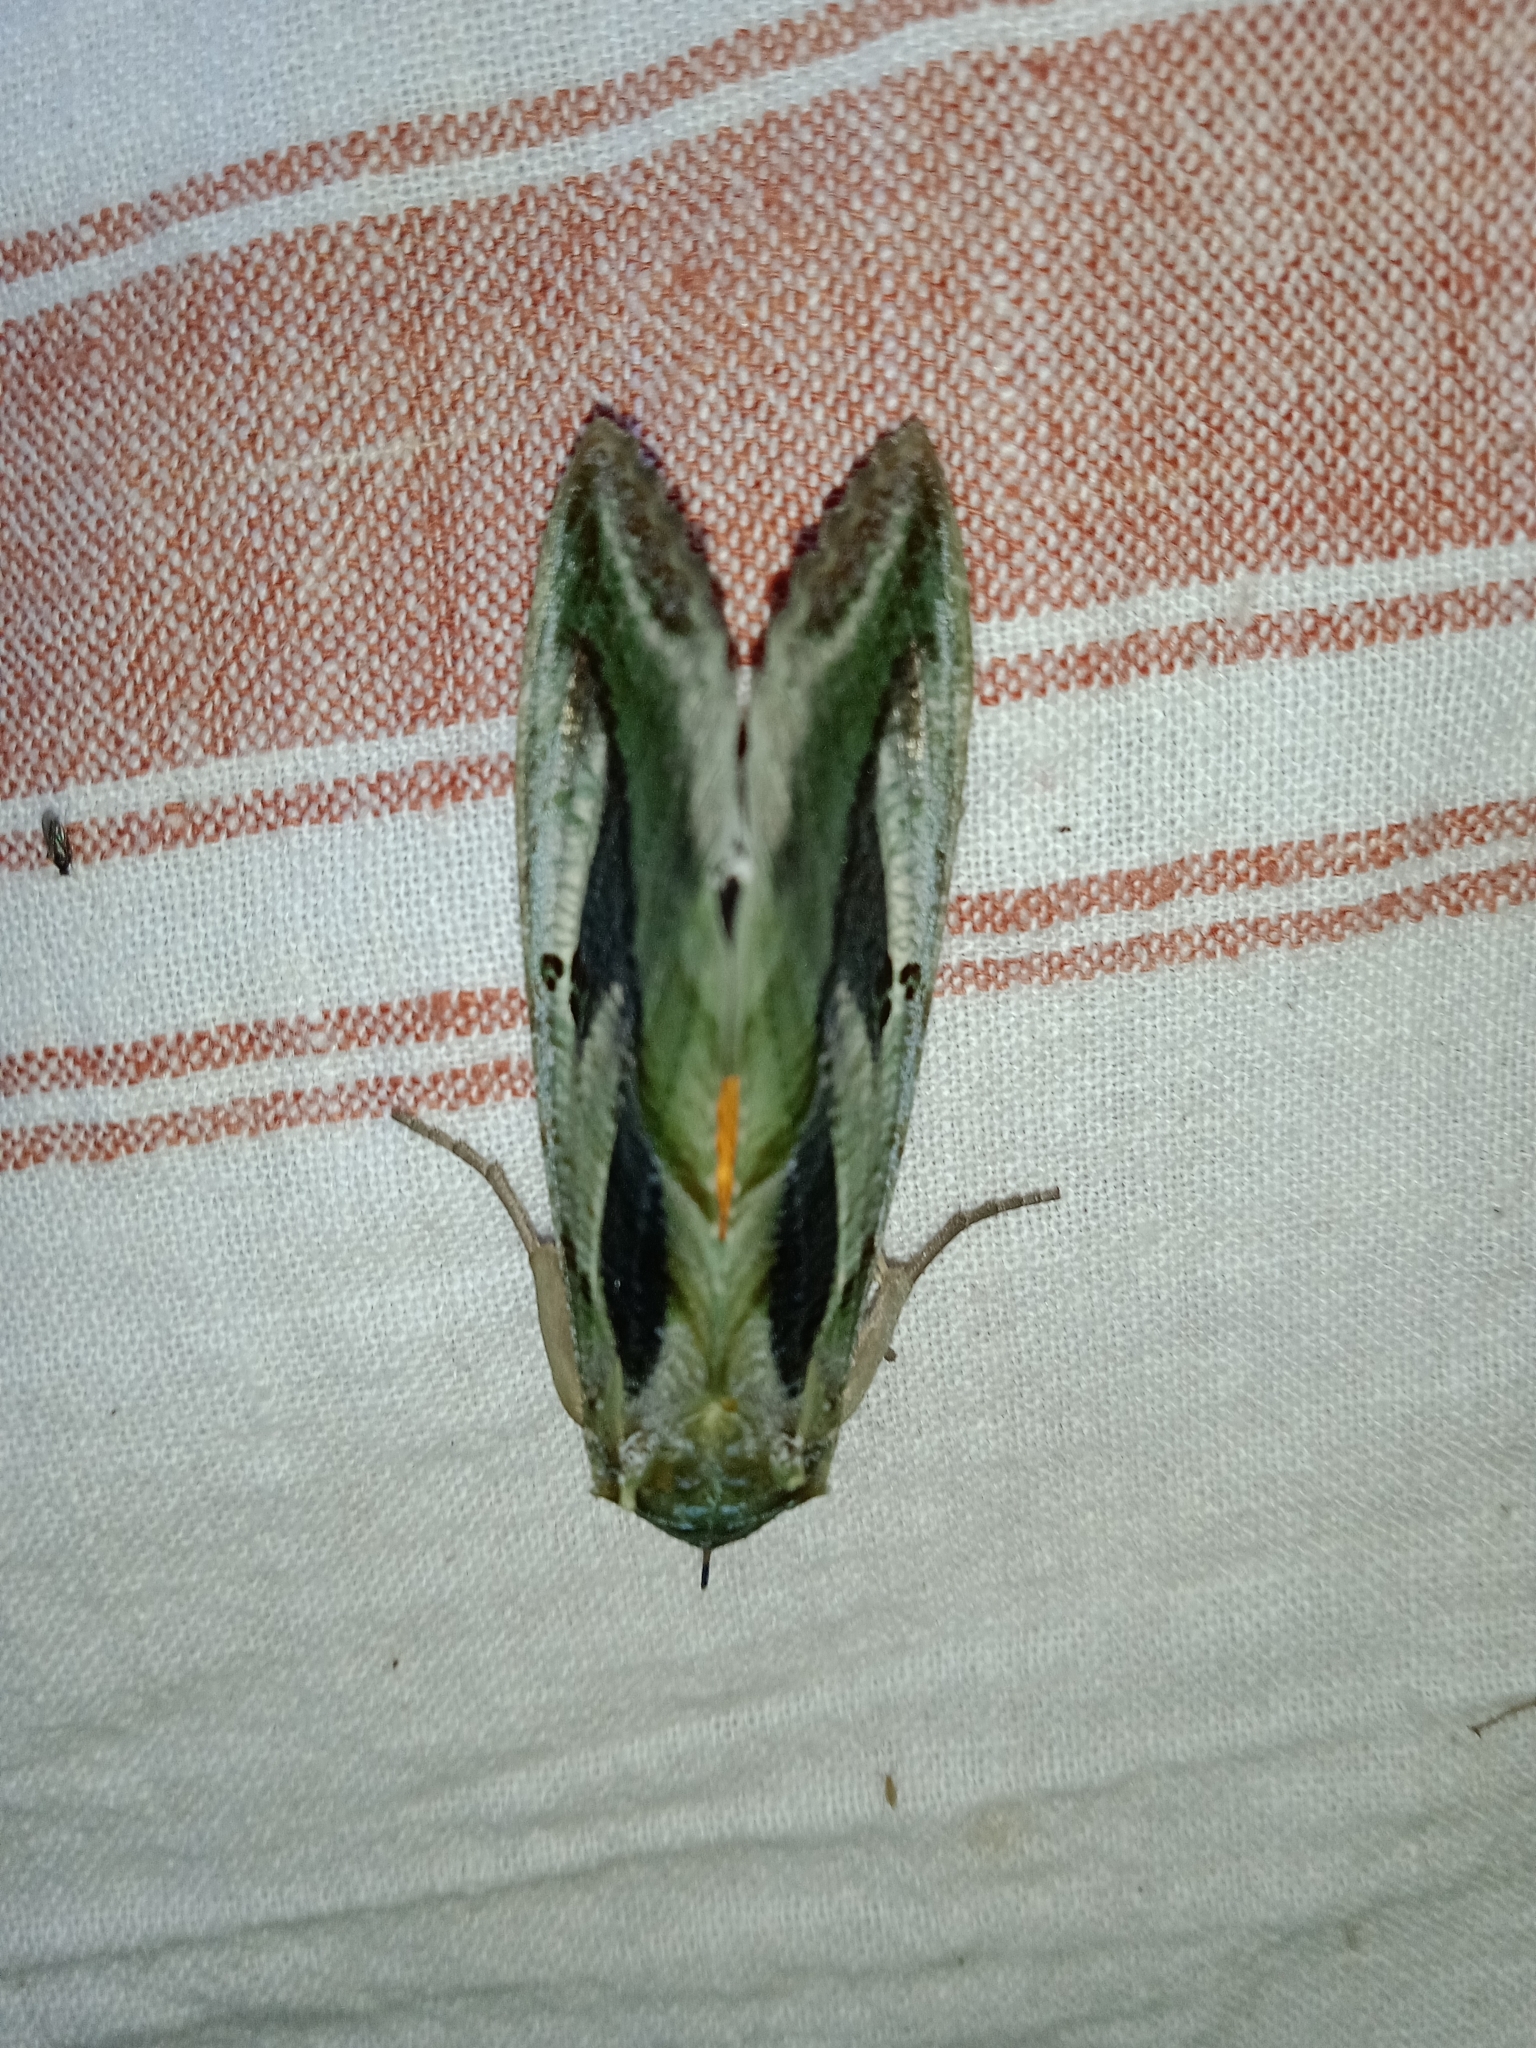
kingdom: Animalia
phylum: Arthropoda
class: Insecta
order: Lepidoptera
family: Erebidae
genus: Eudocima
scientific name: Eudocima materna
